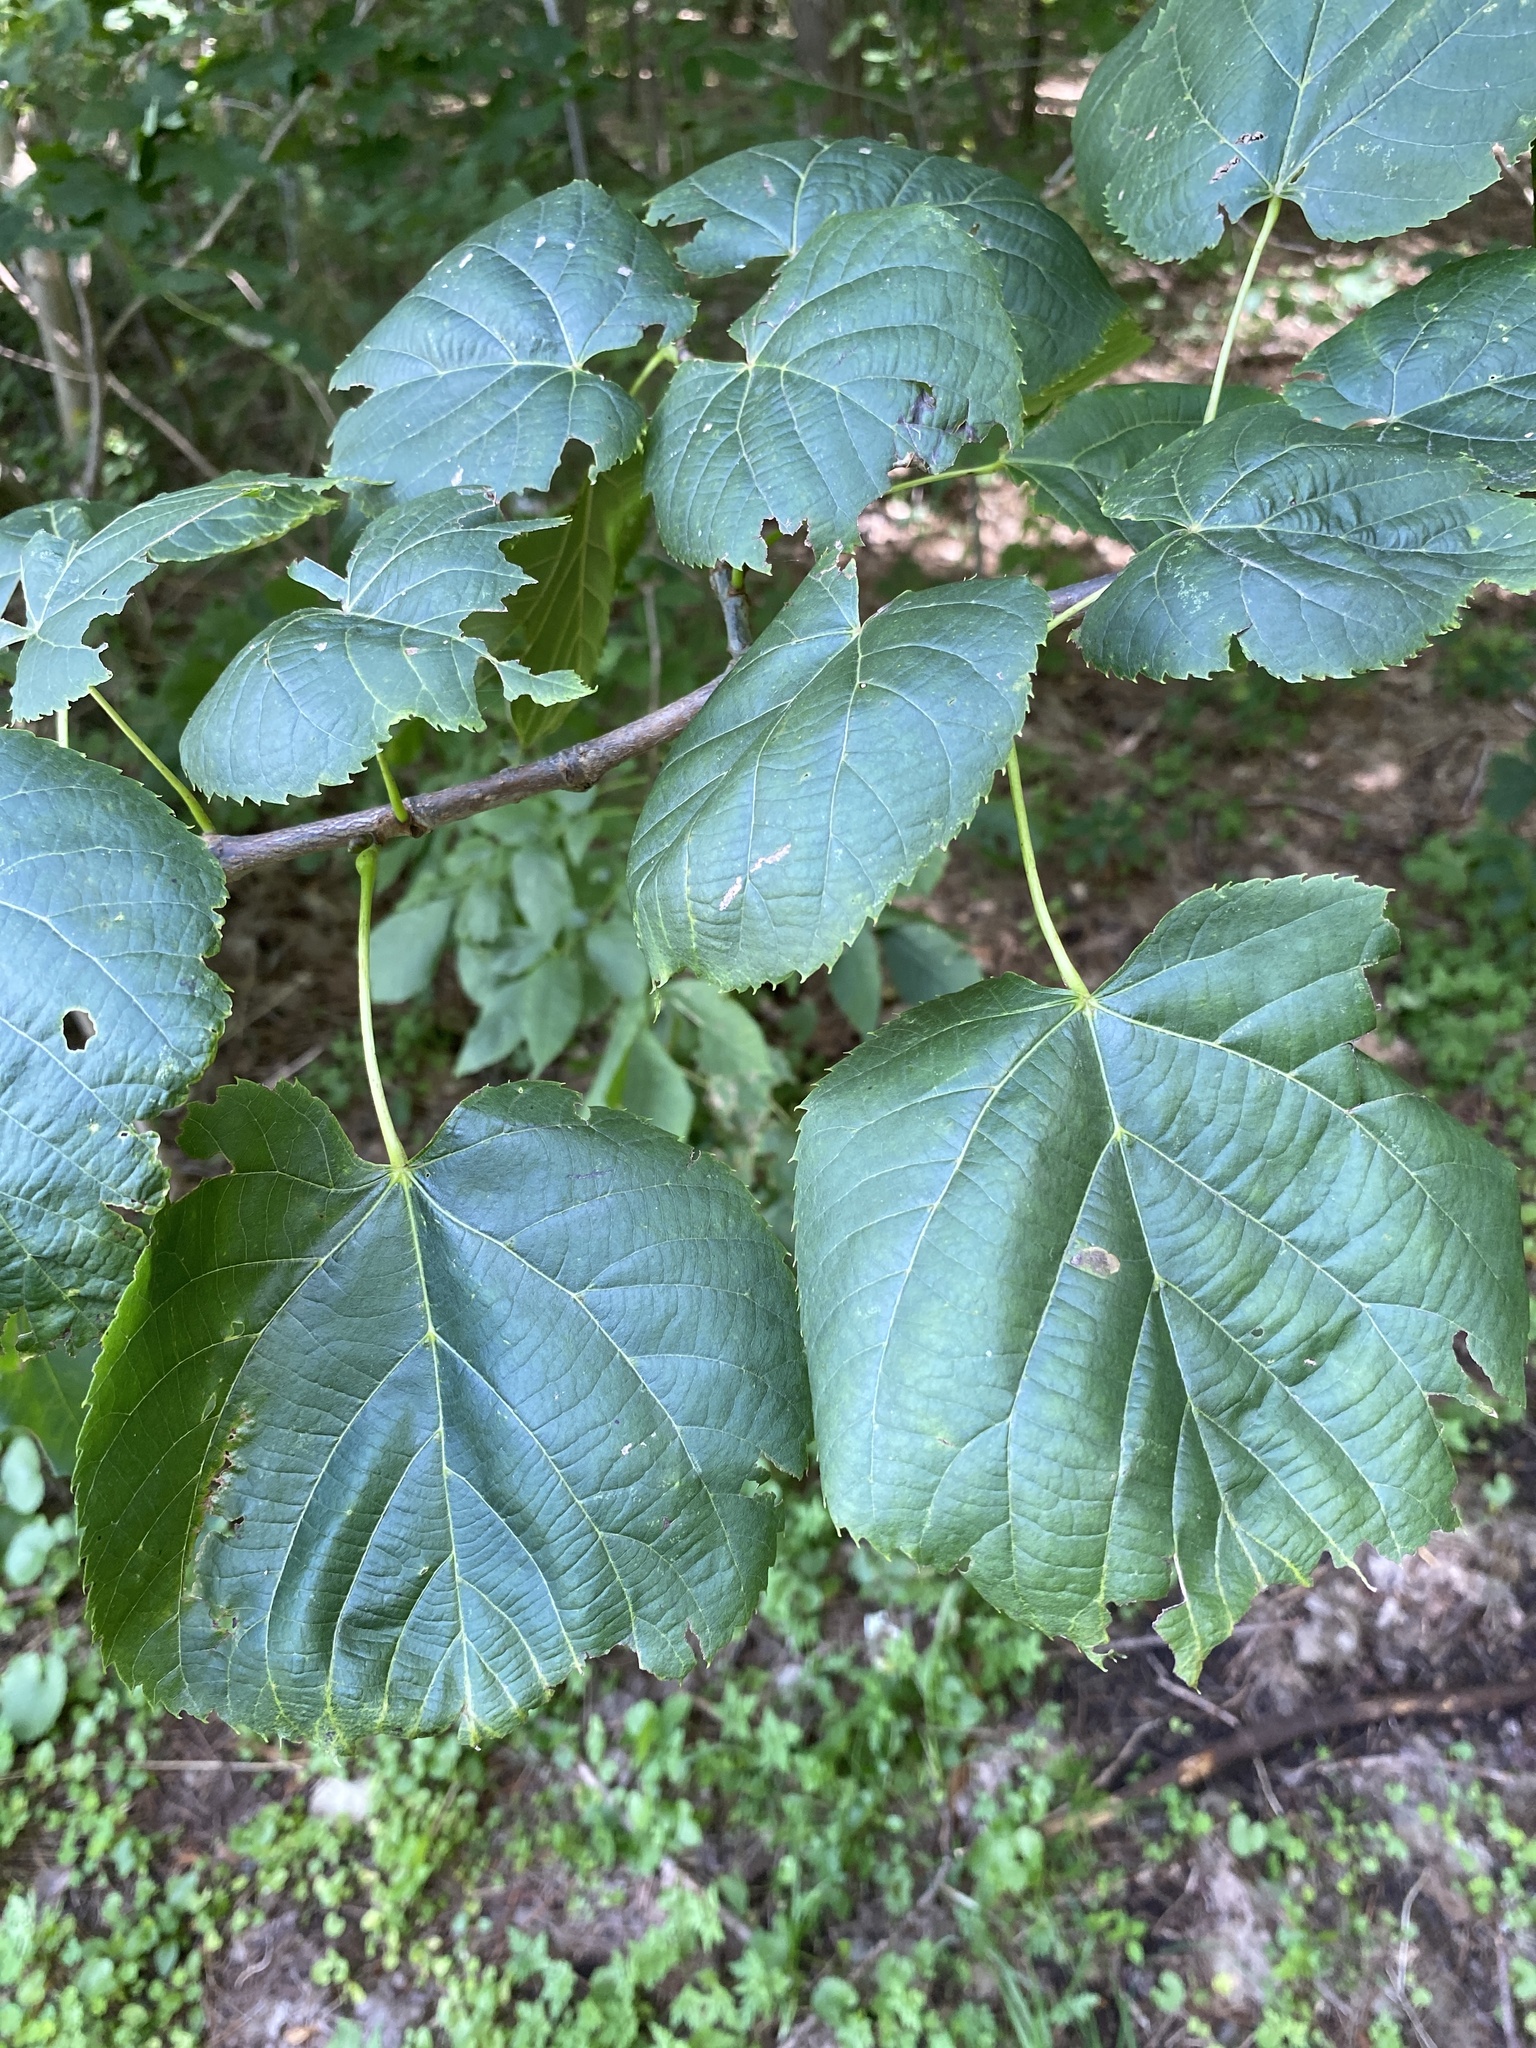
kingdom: Plantae
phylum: Tracheophyta
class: Magnoliopsida
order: Malvales
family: Malvaceae
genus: Tilia
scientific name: Tilia americana
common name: Basswood
